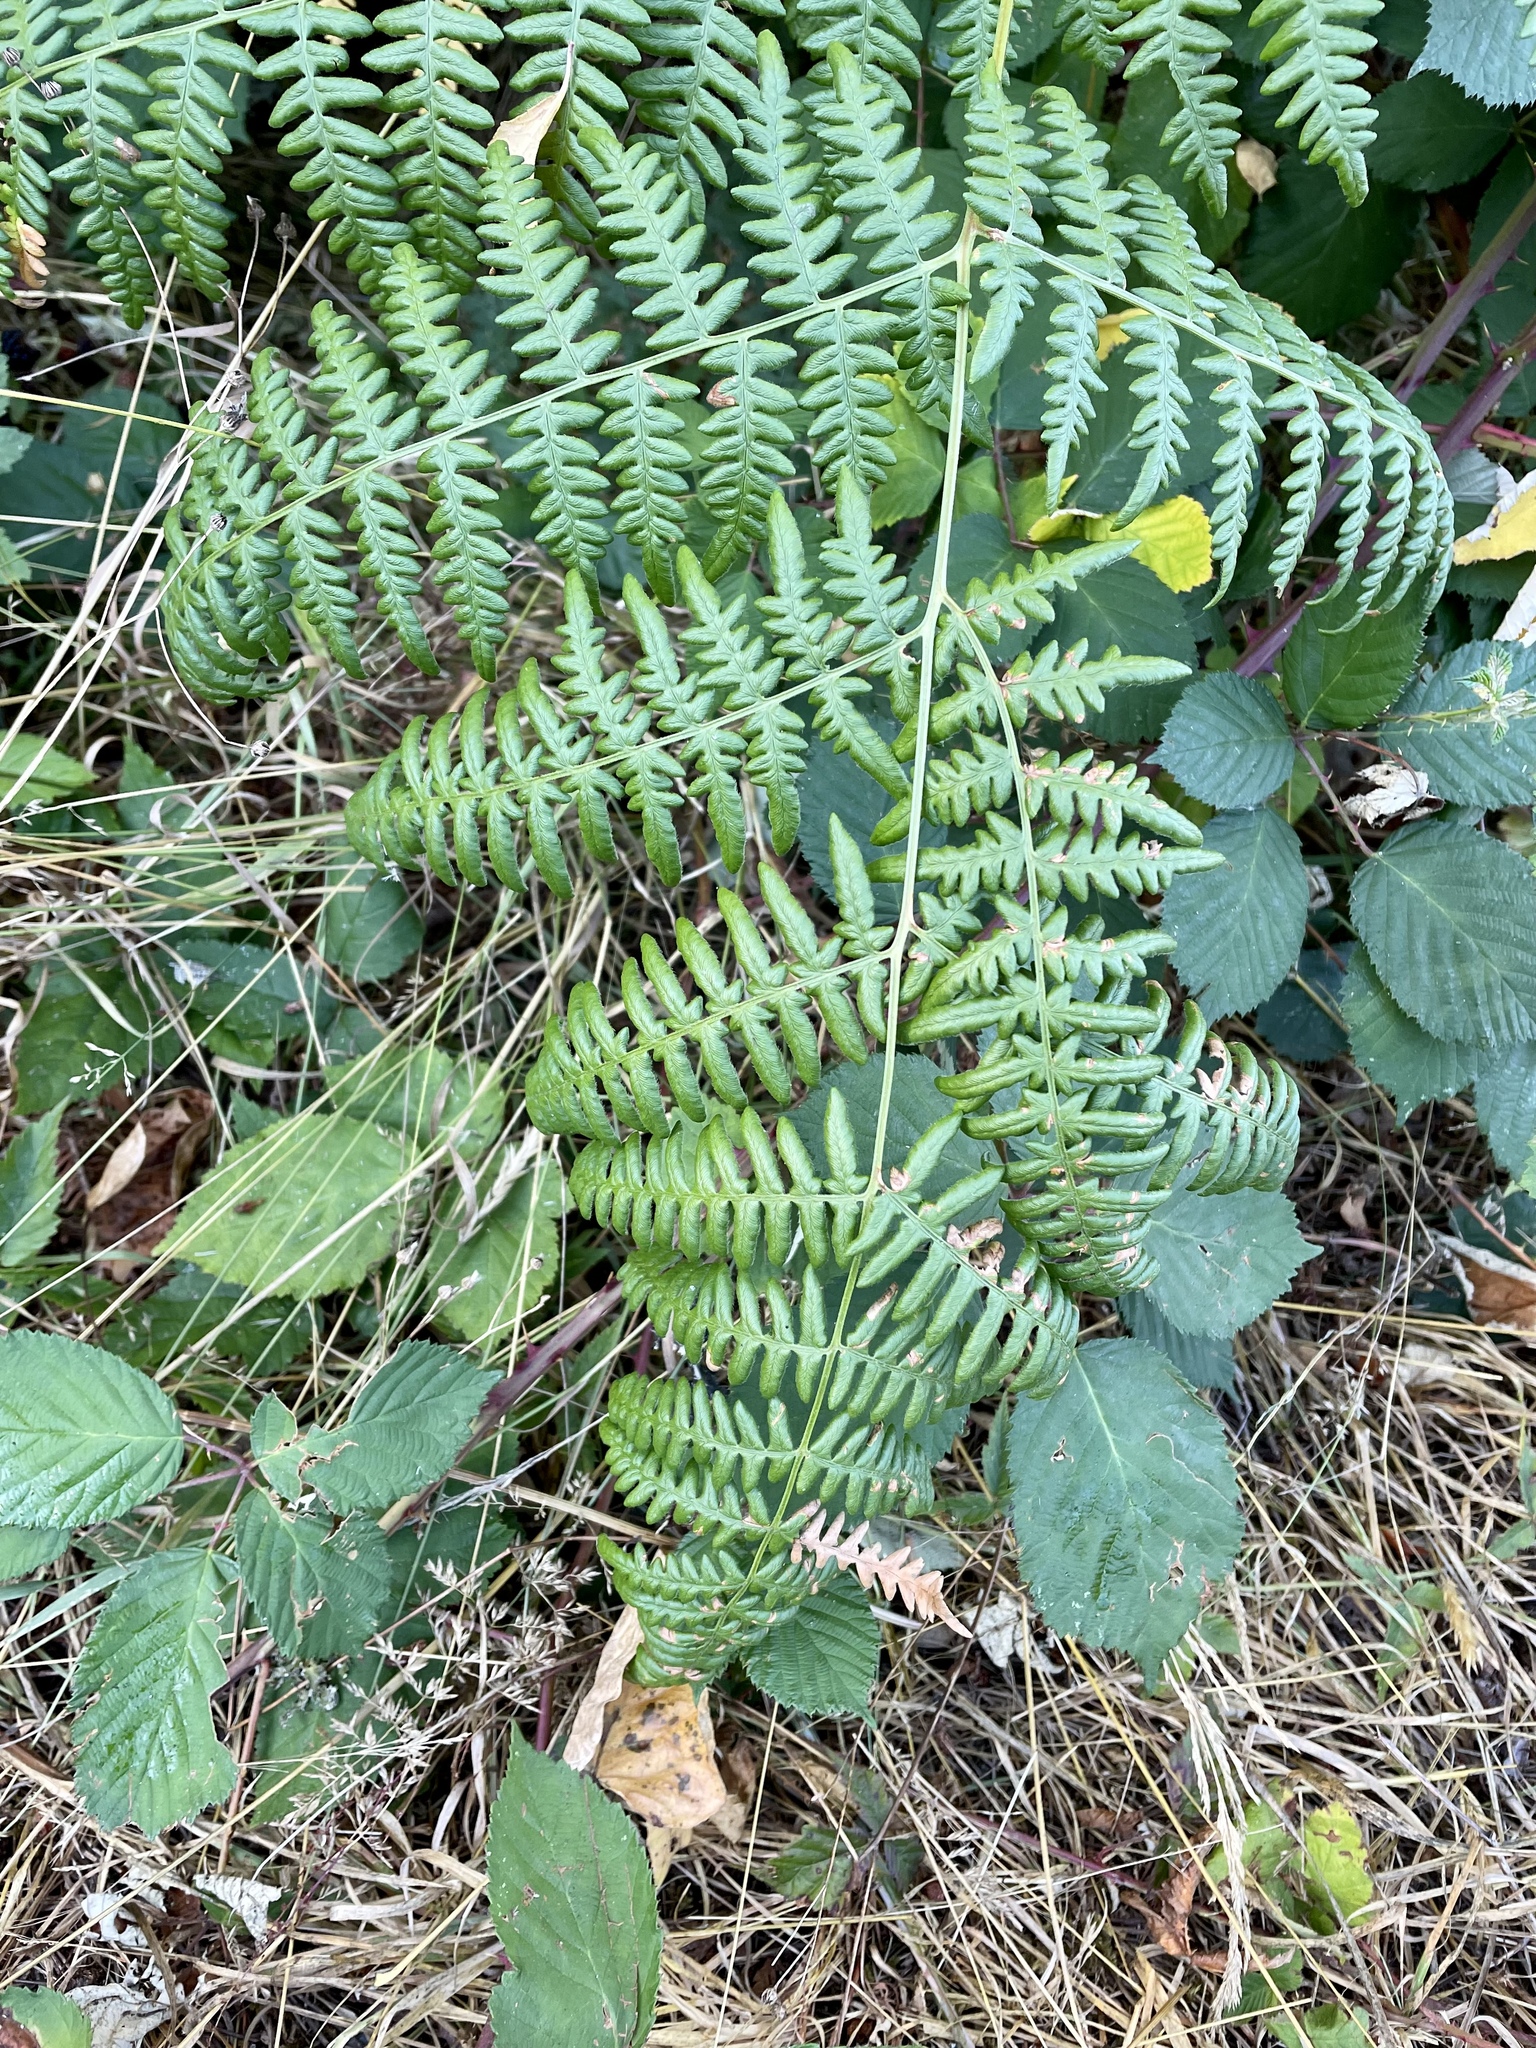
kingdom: Plantae
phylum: Tracheophyta
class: Polypodiopsida
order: Polypodiales
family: Dennstaedtiaceae
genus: Pteridium
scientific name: Pteridium aquilinum
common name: Bracken
